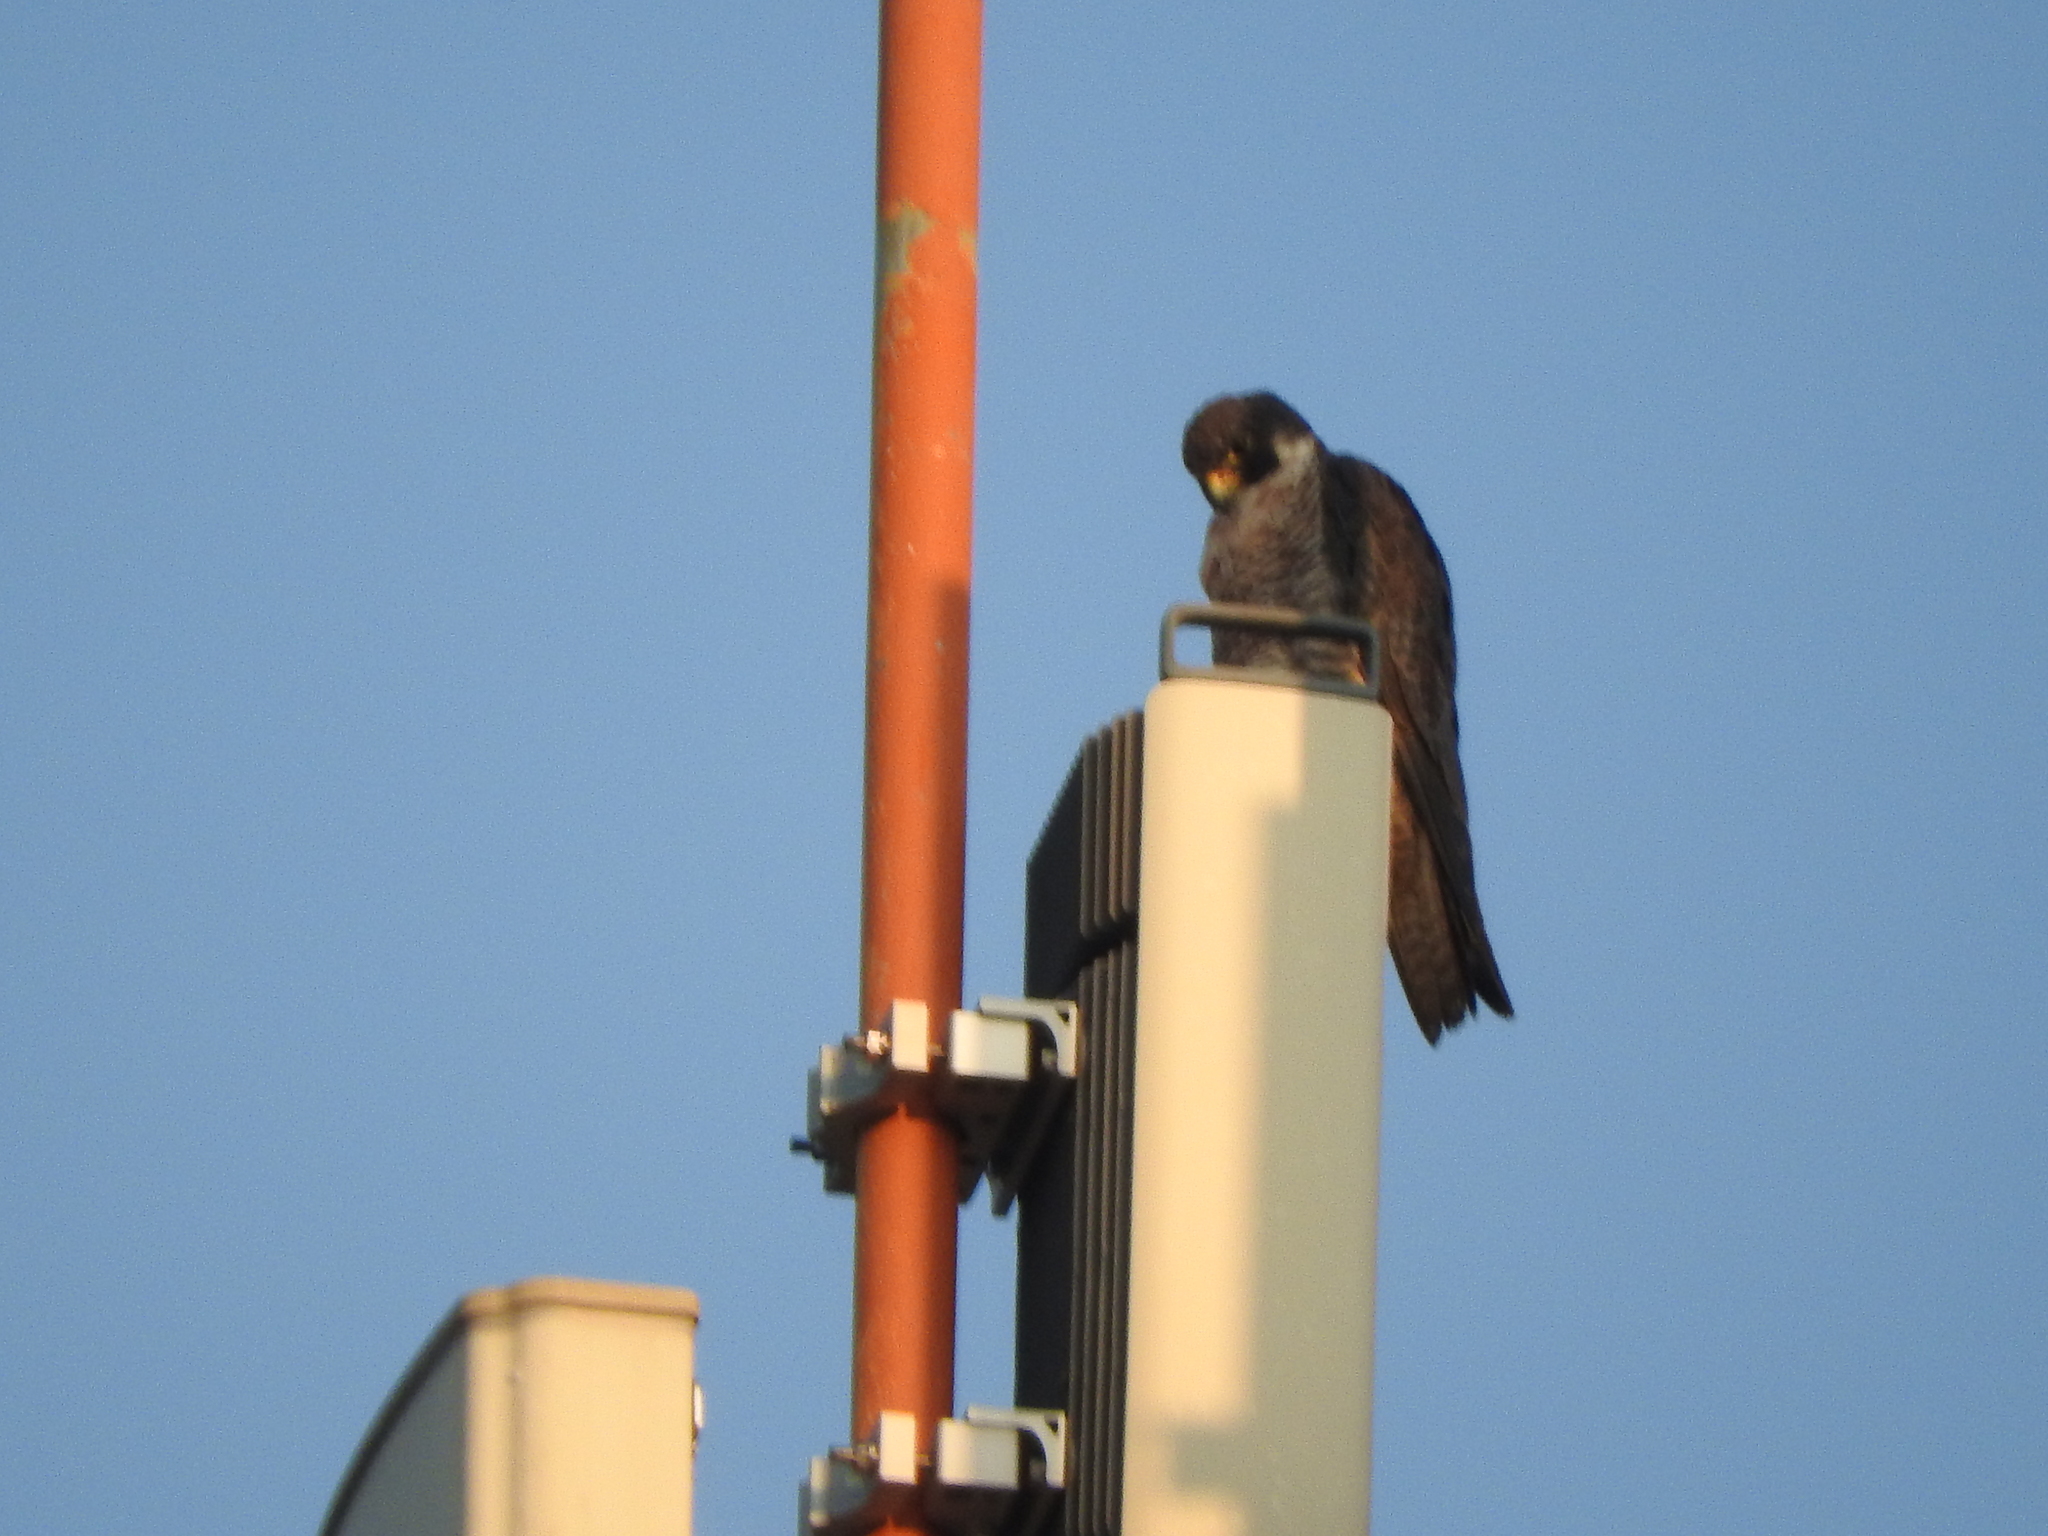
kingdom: Animalia
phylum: Chordata
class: Aves
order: Falconiformes
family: Falconidae
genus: Falco
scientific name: Falco peregrinus
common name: Peregrine falcon
